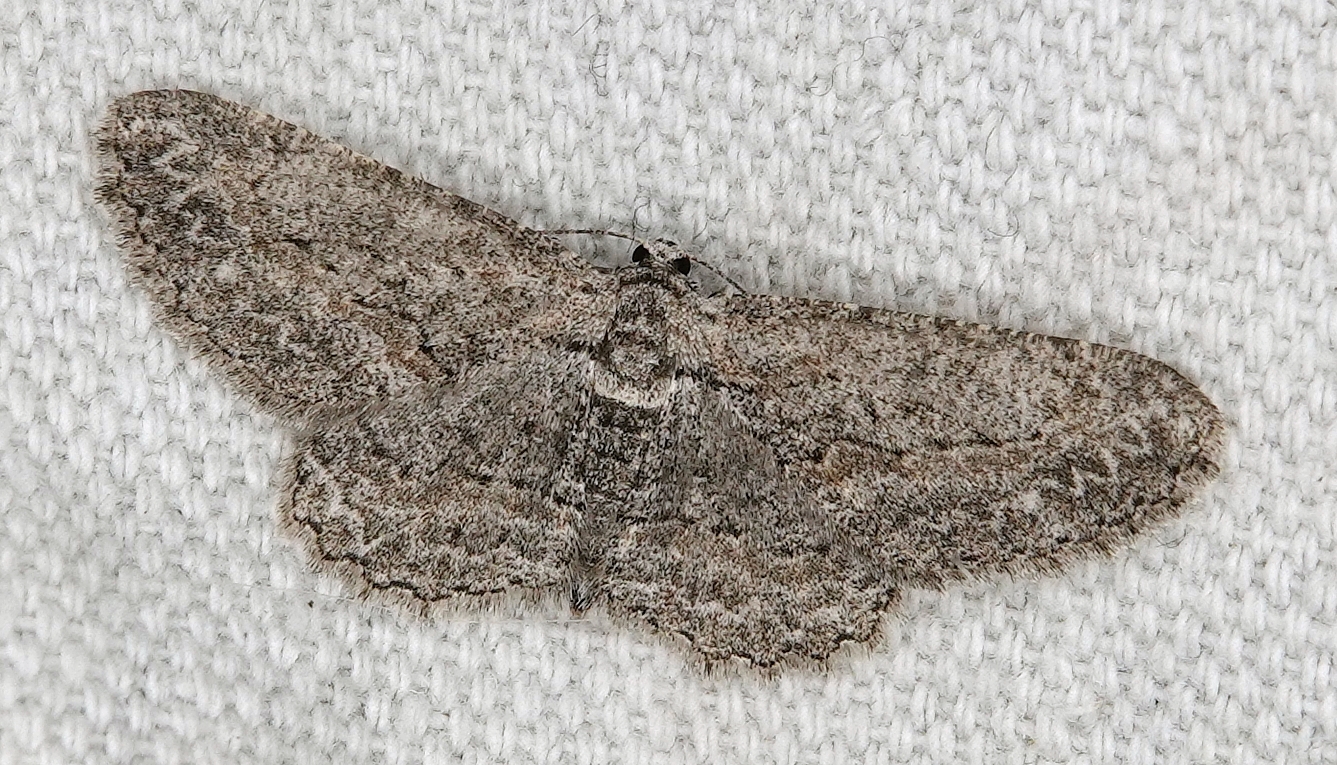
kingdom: Animalia
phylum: Arthropoda
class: Insecta
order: Lepidoptera
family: Geometridae
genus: Anavitrinella
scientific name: Anavitrinella pampinaria
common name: Common gray
